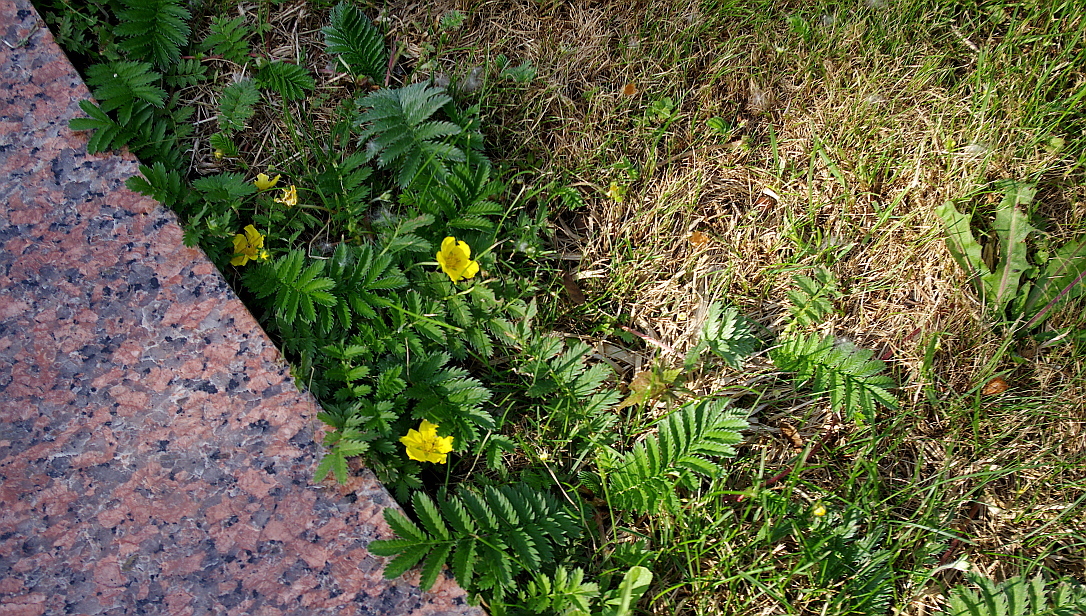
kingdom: Plantae
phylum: Tracheophyta
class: Magnoliopsida
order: Rosales
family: Rosaceae
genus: Argentina
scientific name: Argentina anserina
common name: Common silverweed
